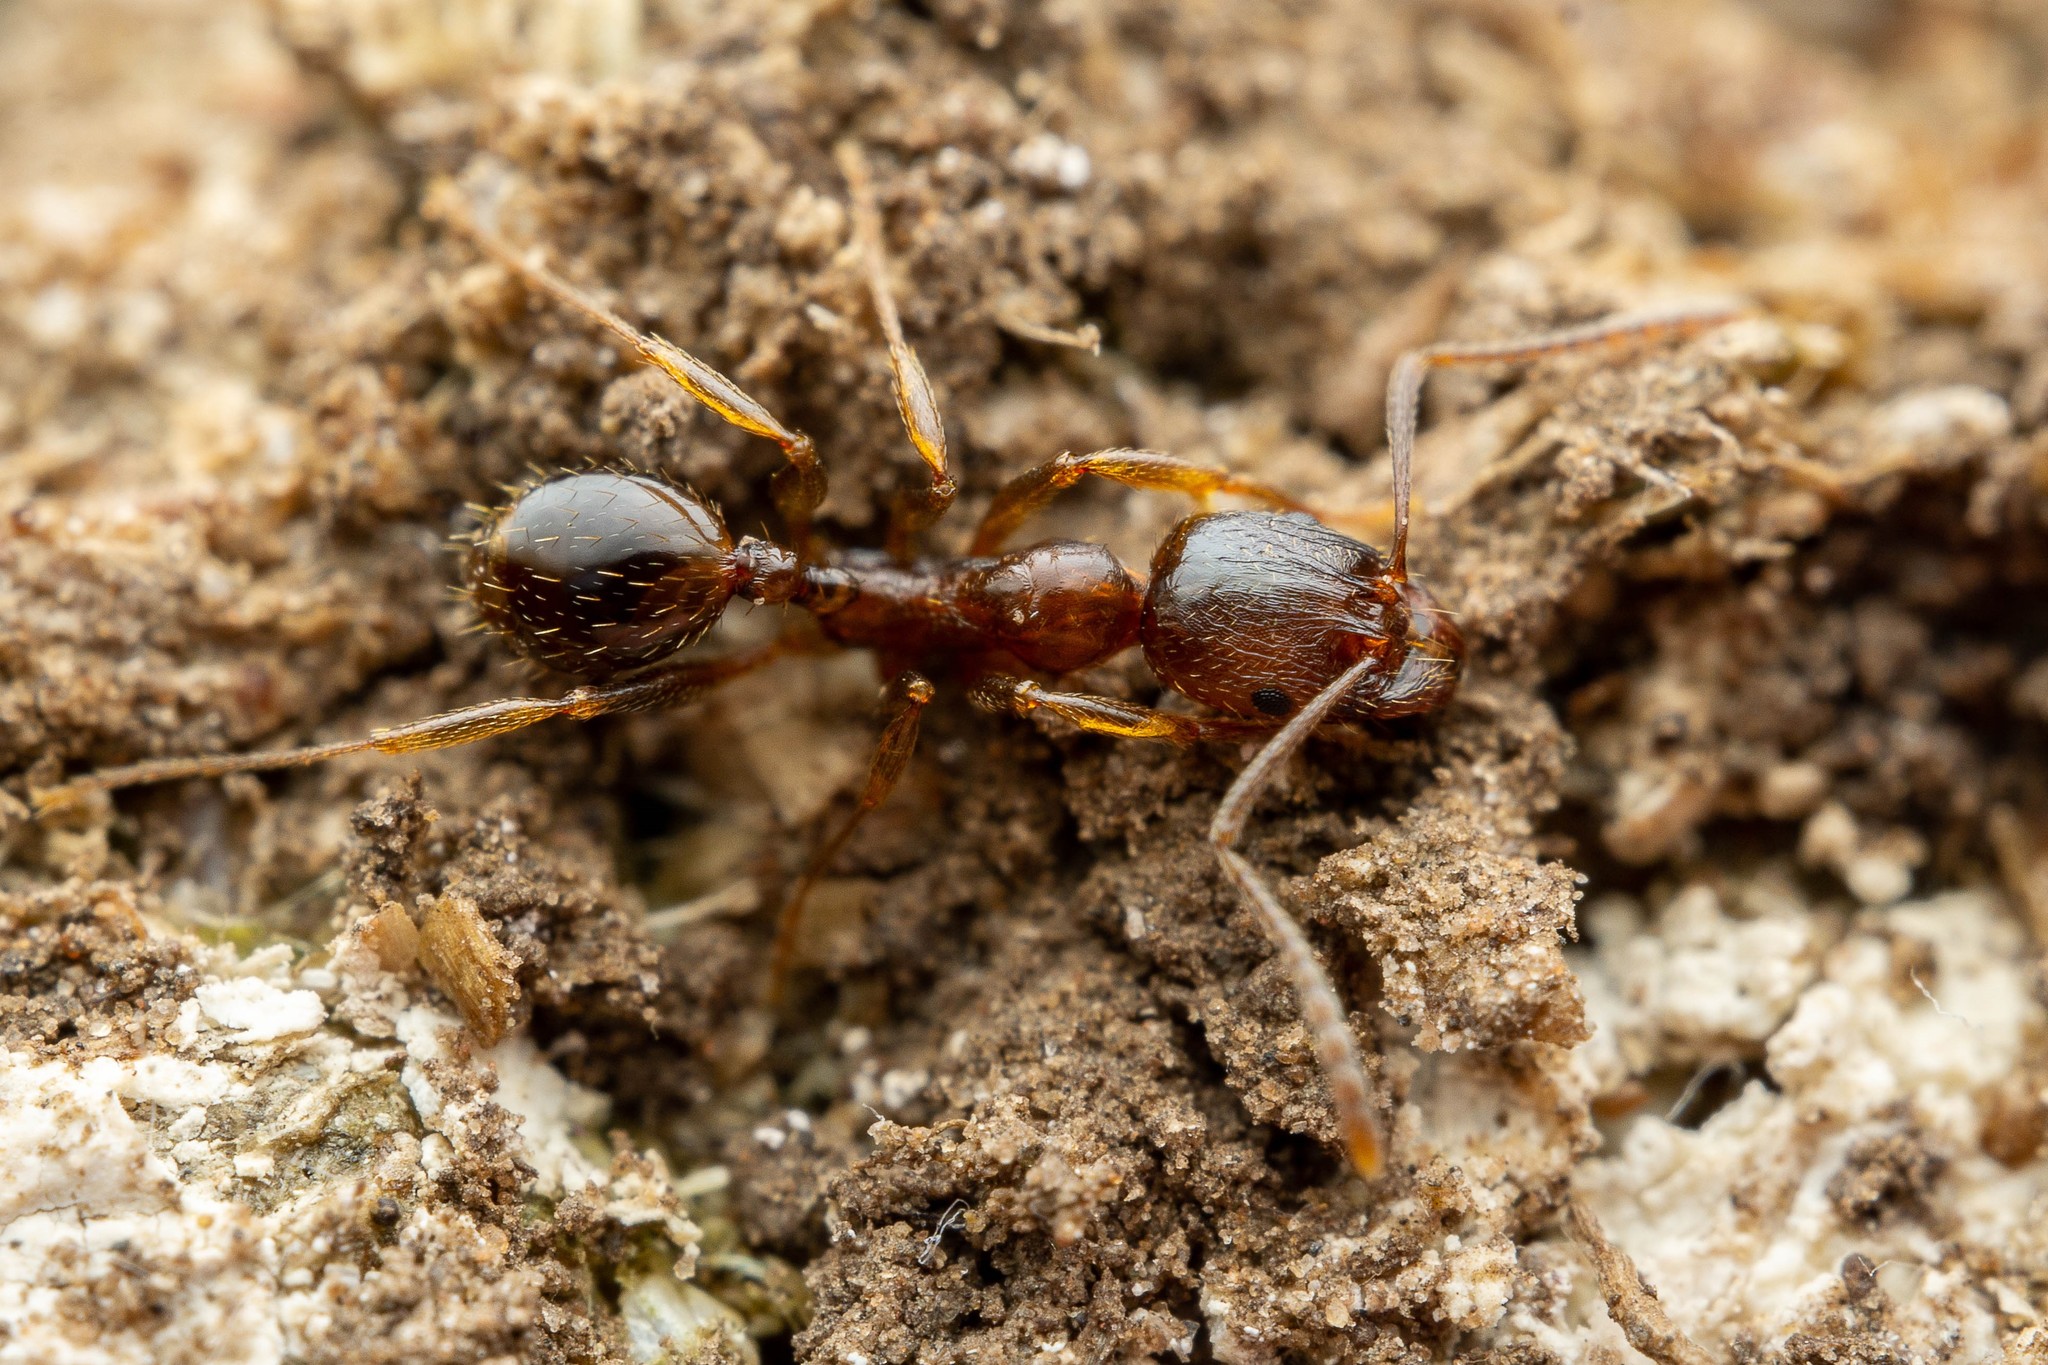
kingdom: Animalia
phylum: Arthropoda
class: Insecta
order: Hymenoptera
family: Formicidae
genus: Aphaenogaster
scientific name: Aphaenogaster occidentalis
